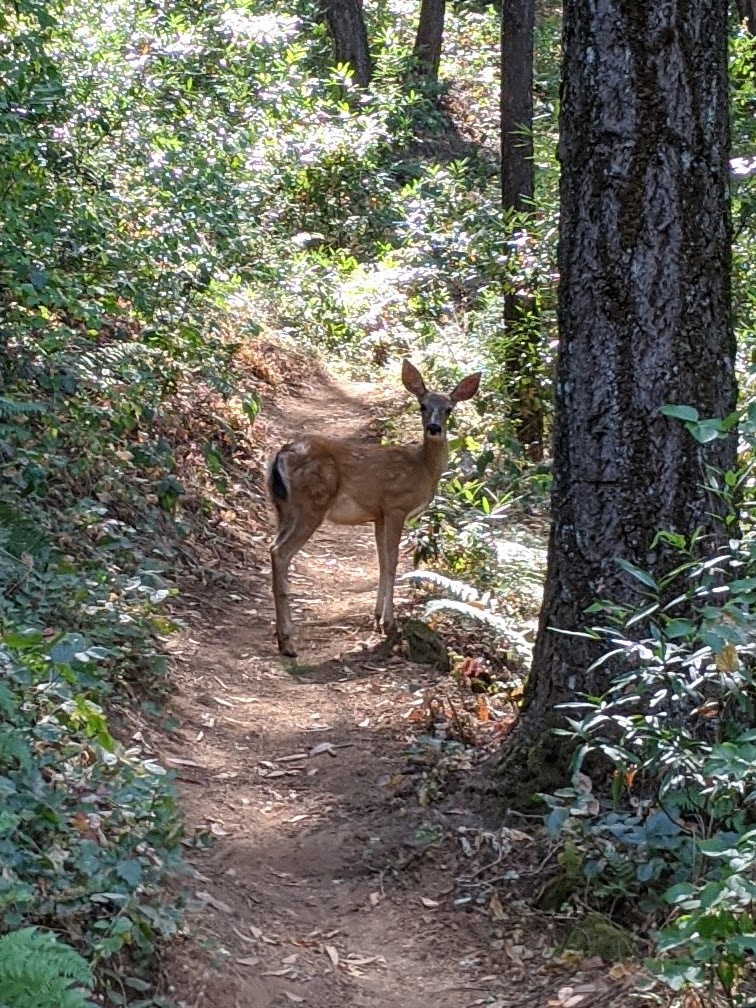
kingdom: Animalia
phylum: Chordata
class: Mammalia
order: Artiodactyla
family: Cervidae
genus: Odocoileus
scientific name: Odocoileus hemionus
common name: Mule deer
